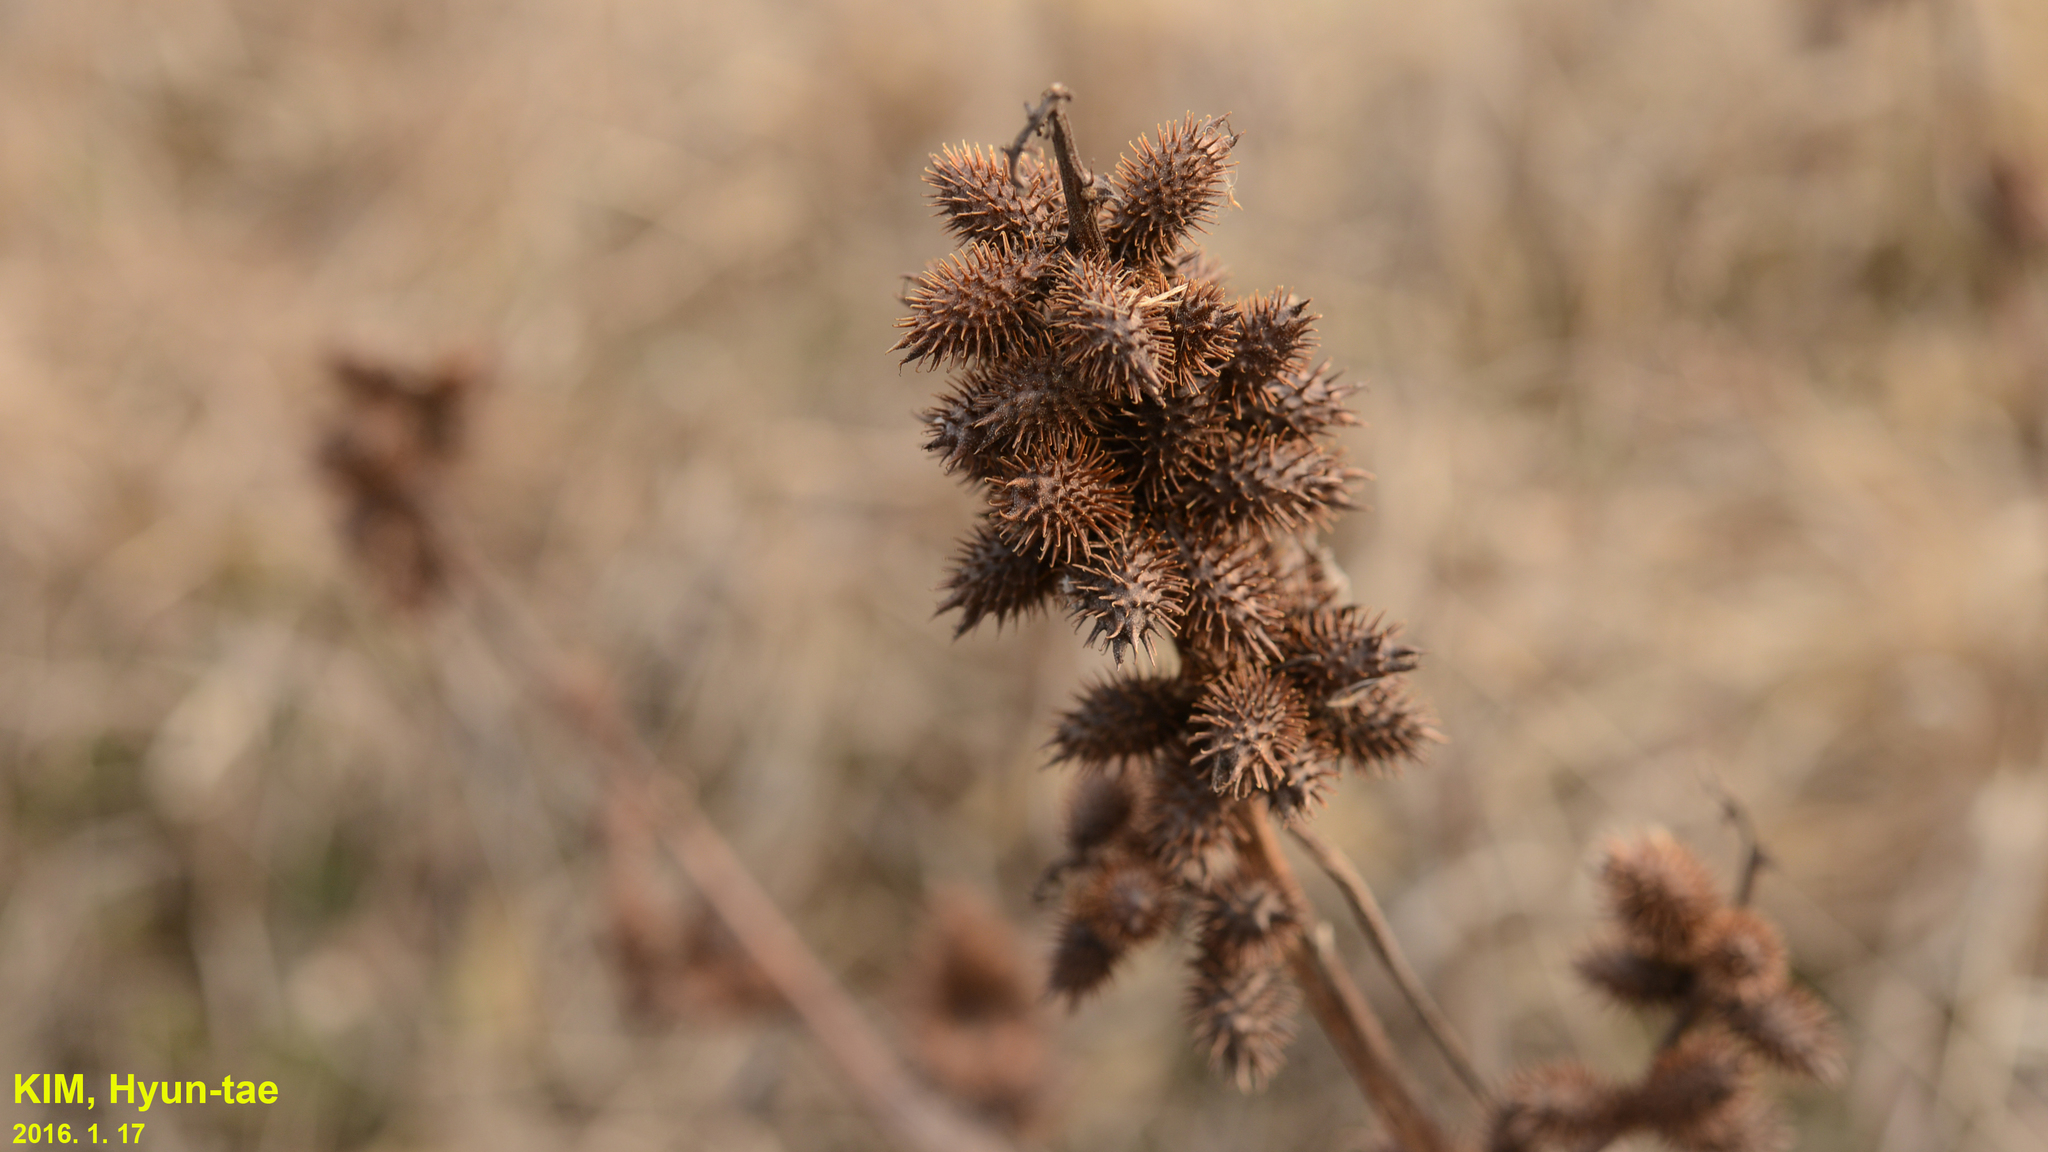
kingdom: Plantae
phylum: Tracheophyta
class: Magnoliopsida
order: Asterales
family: Asteraceae
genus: Xanthium
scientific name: Xanthium strumarium
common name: Rough cocklebur
